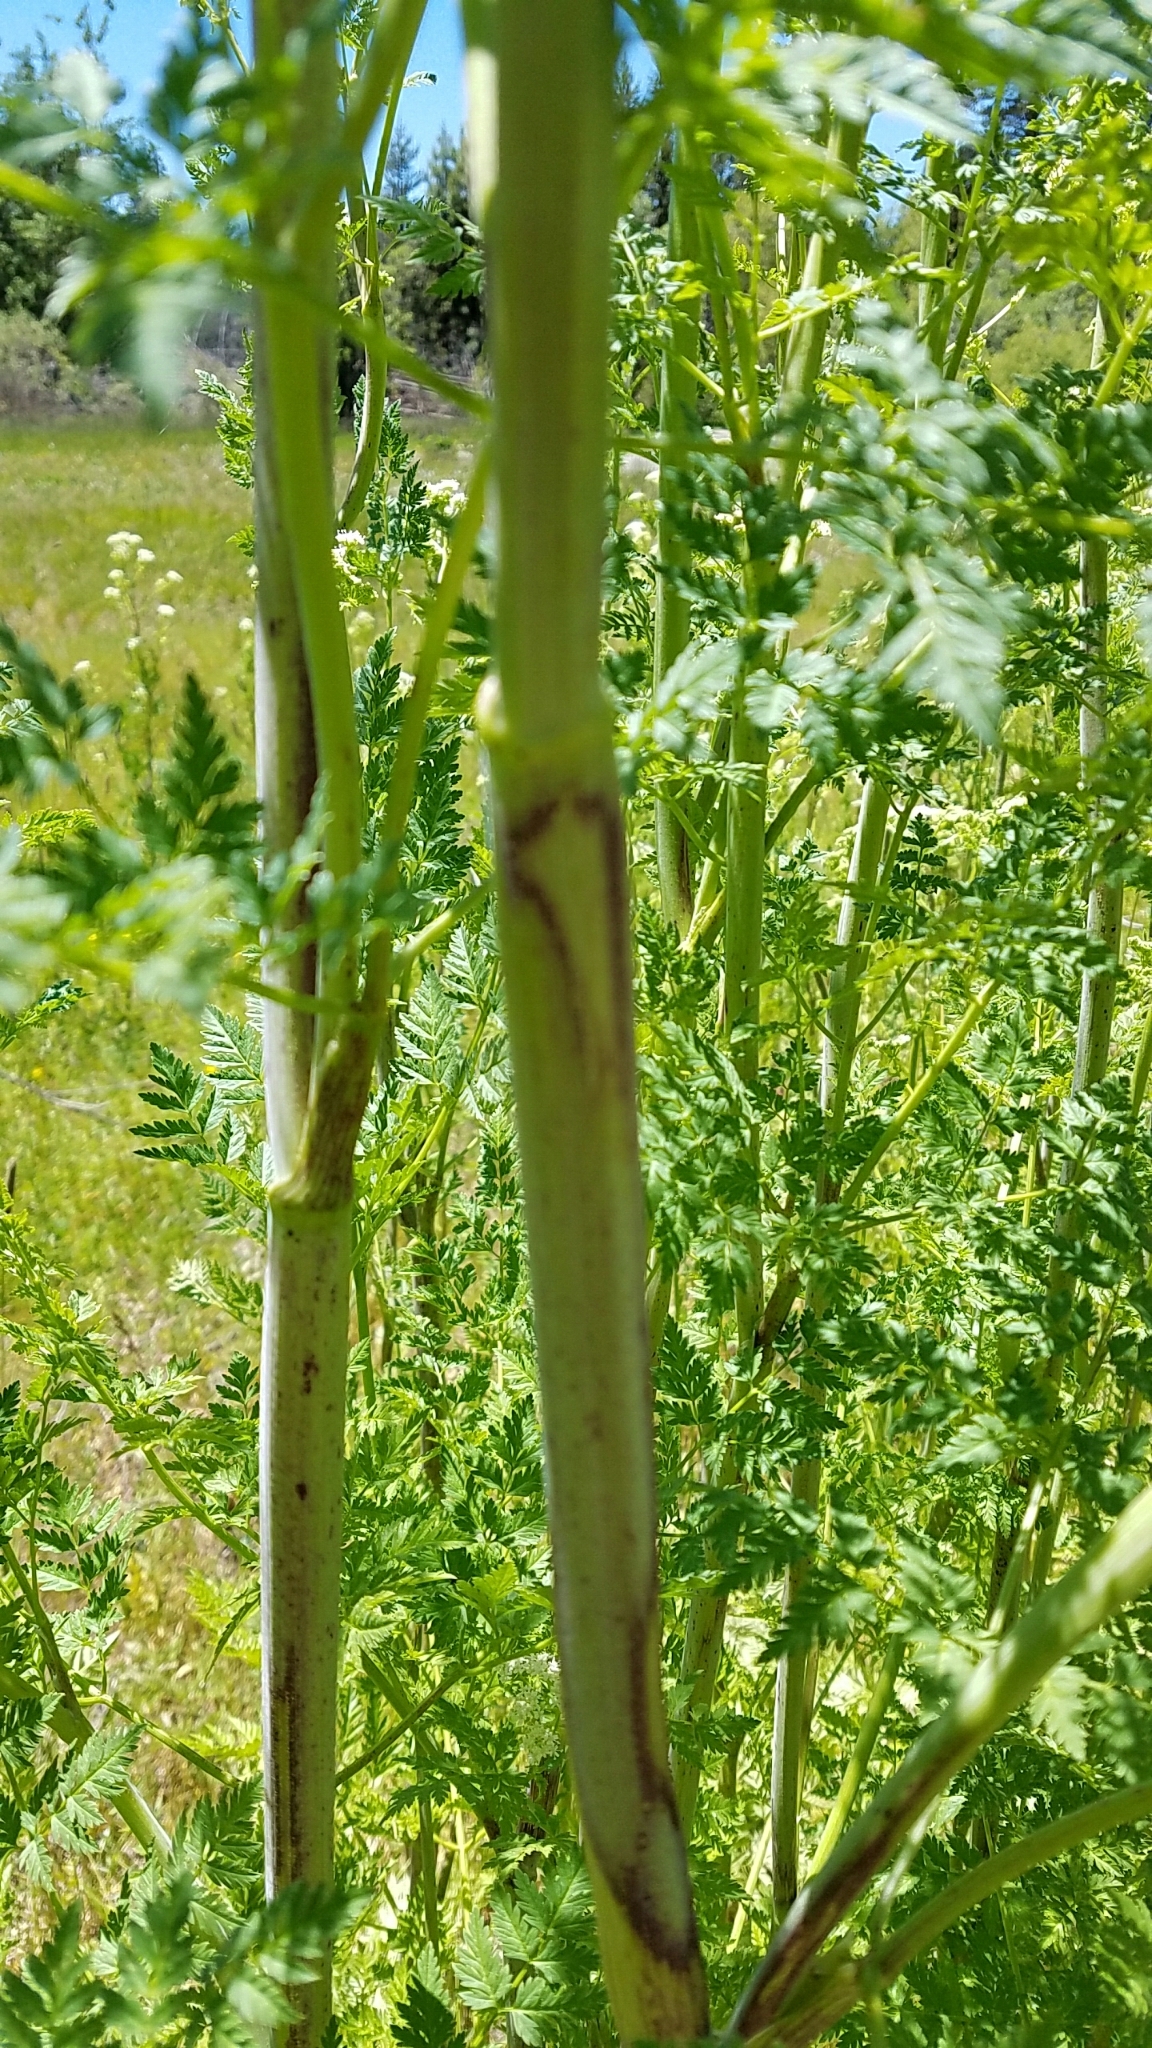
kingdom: Plantae
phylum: Tracheophyta
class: Magnoliopsida
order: Apiales
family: Apiaceae
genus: Conium
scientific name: Conium maculatum
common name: Hemlock
